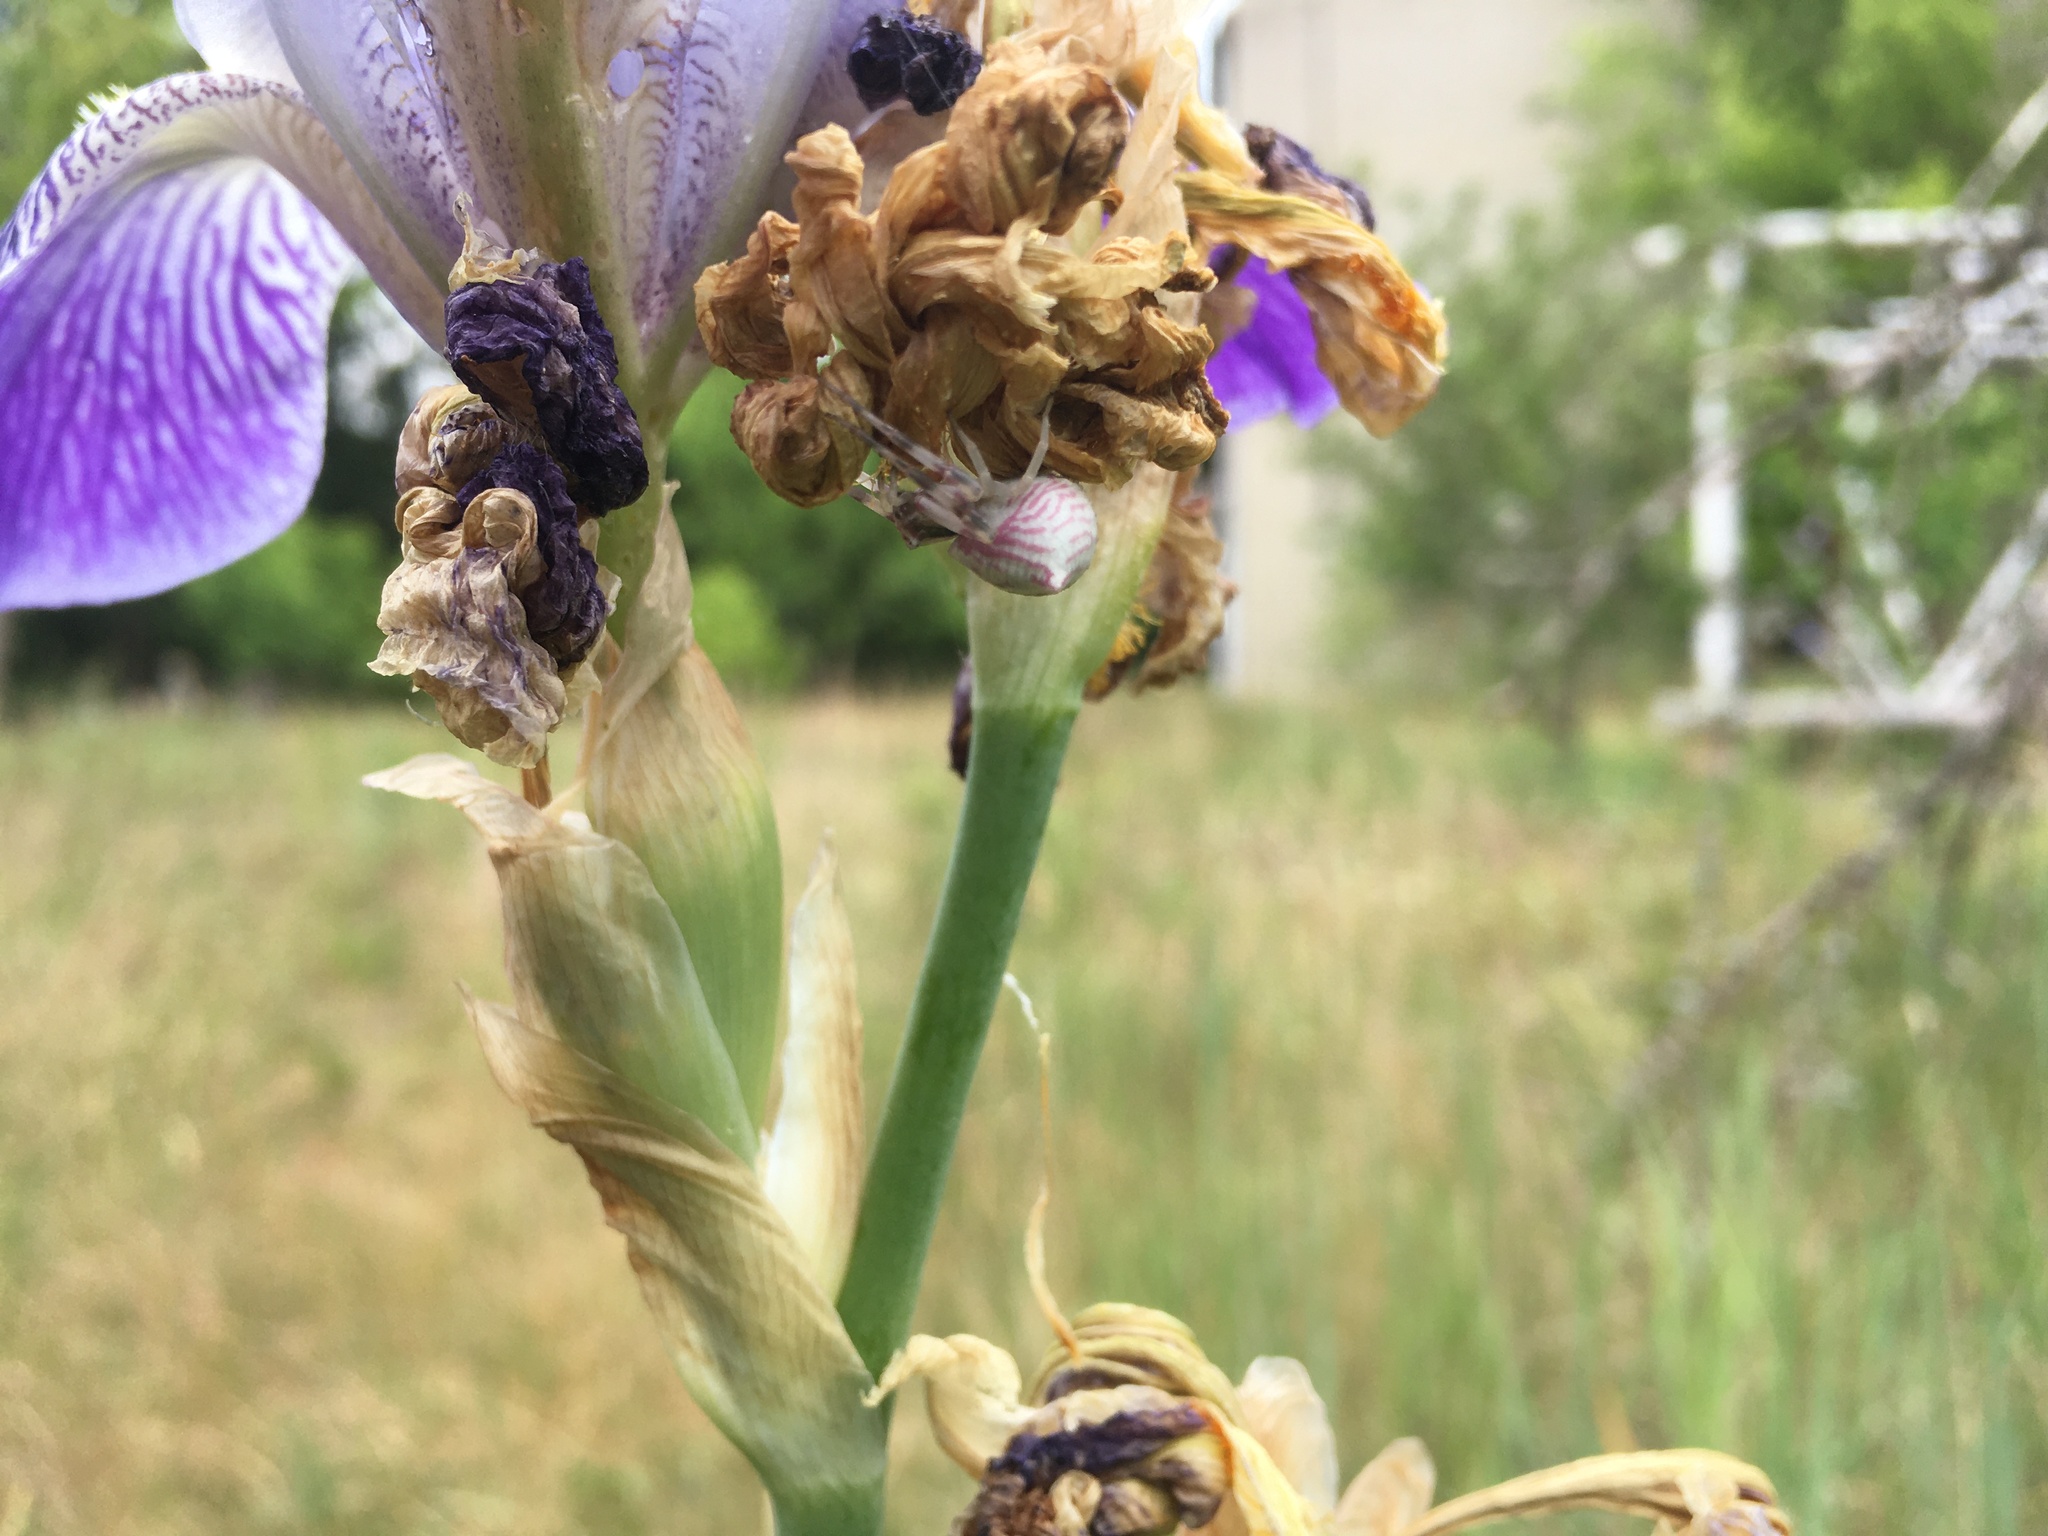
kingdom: Animalia
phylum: Arthropoda
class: Arachnida
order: Araneae
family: Thomisidae
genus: Thomisus
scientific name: Thomisus onustus
